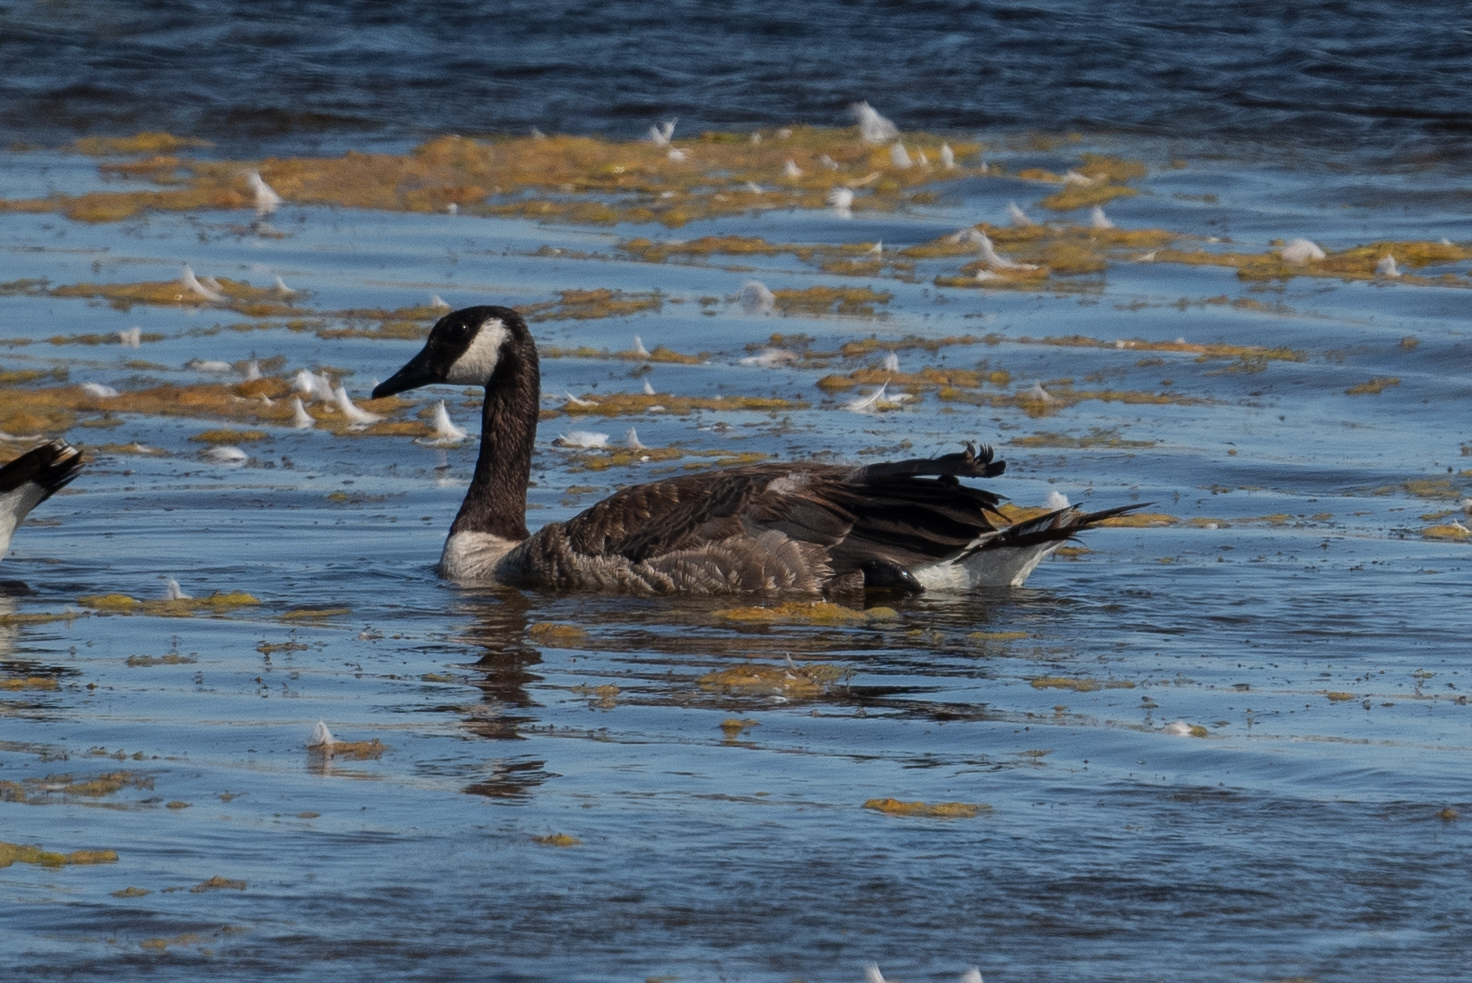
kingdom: Animalia
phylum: Chordata
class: Aves
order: Anseriformes
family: Anatidae
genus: Branta
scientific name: Branta canadensis
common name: Canada goose
